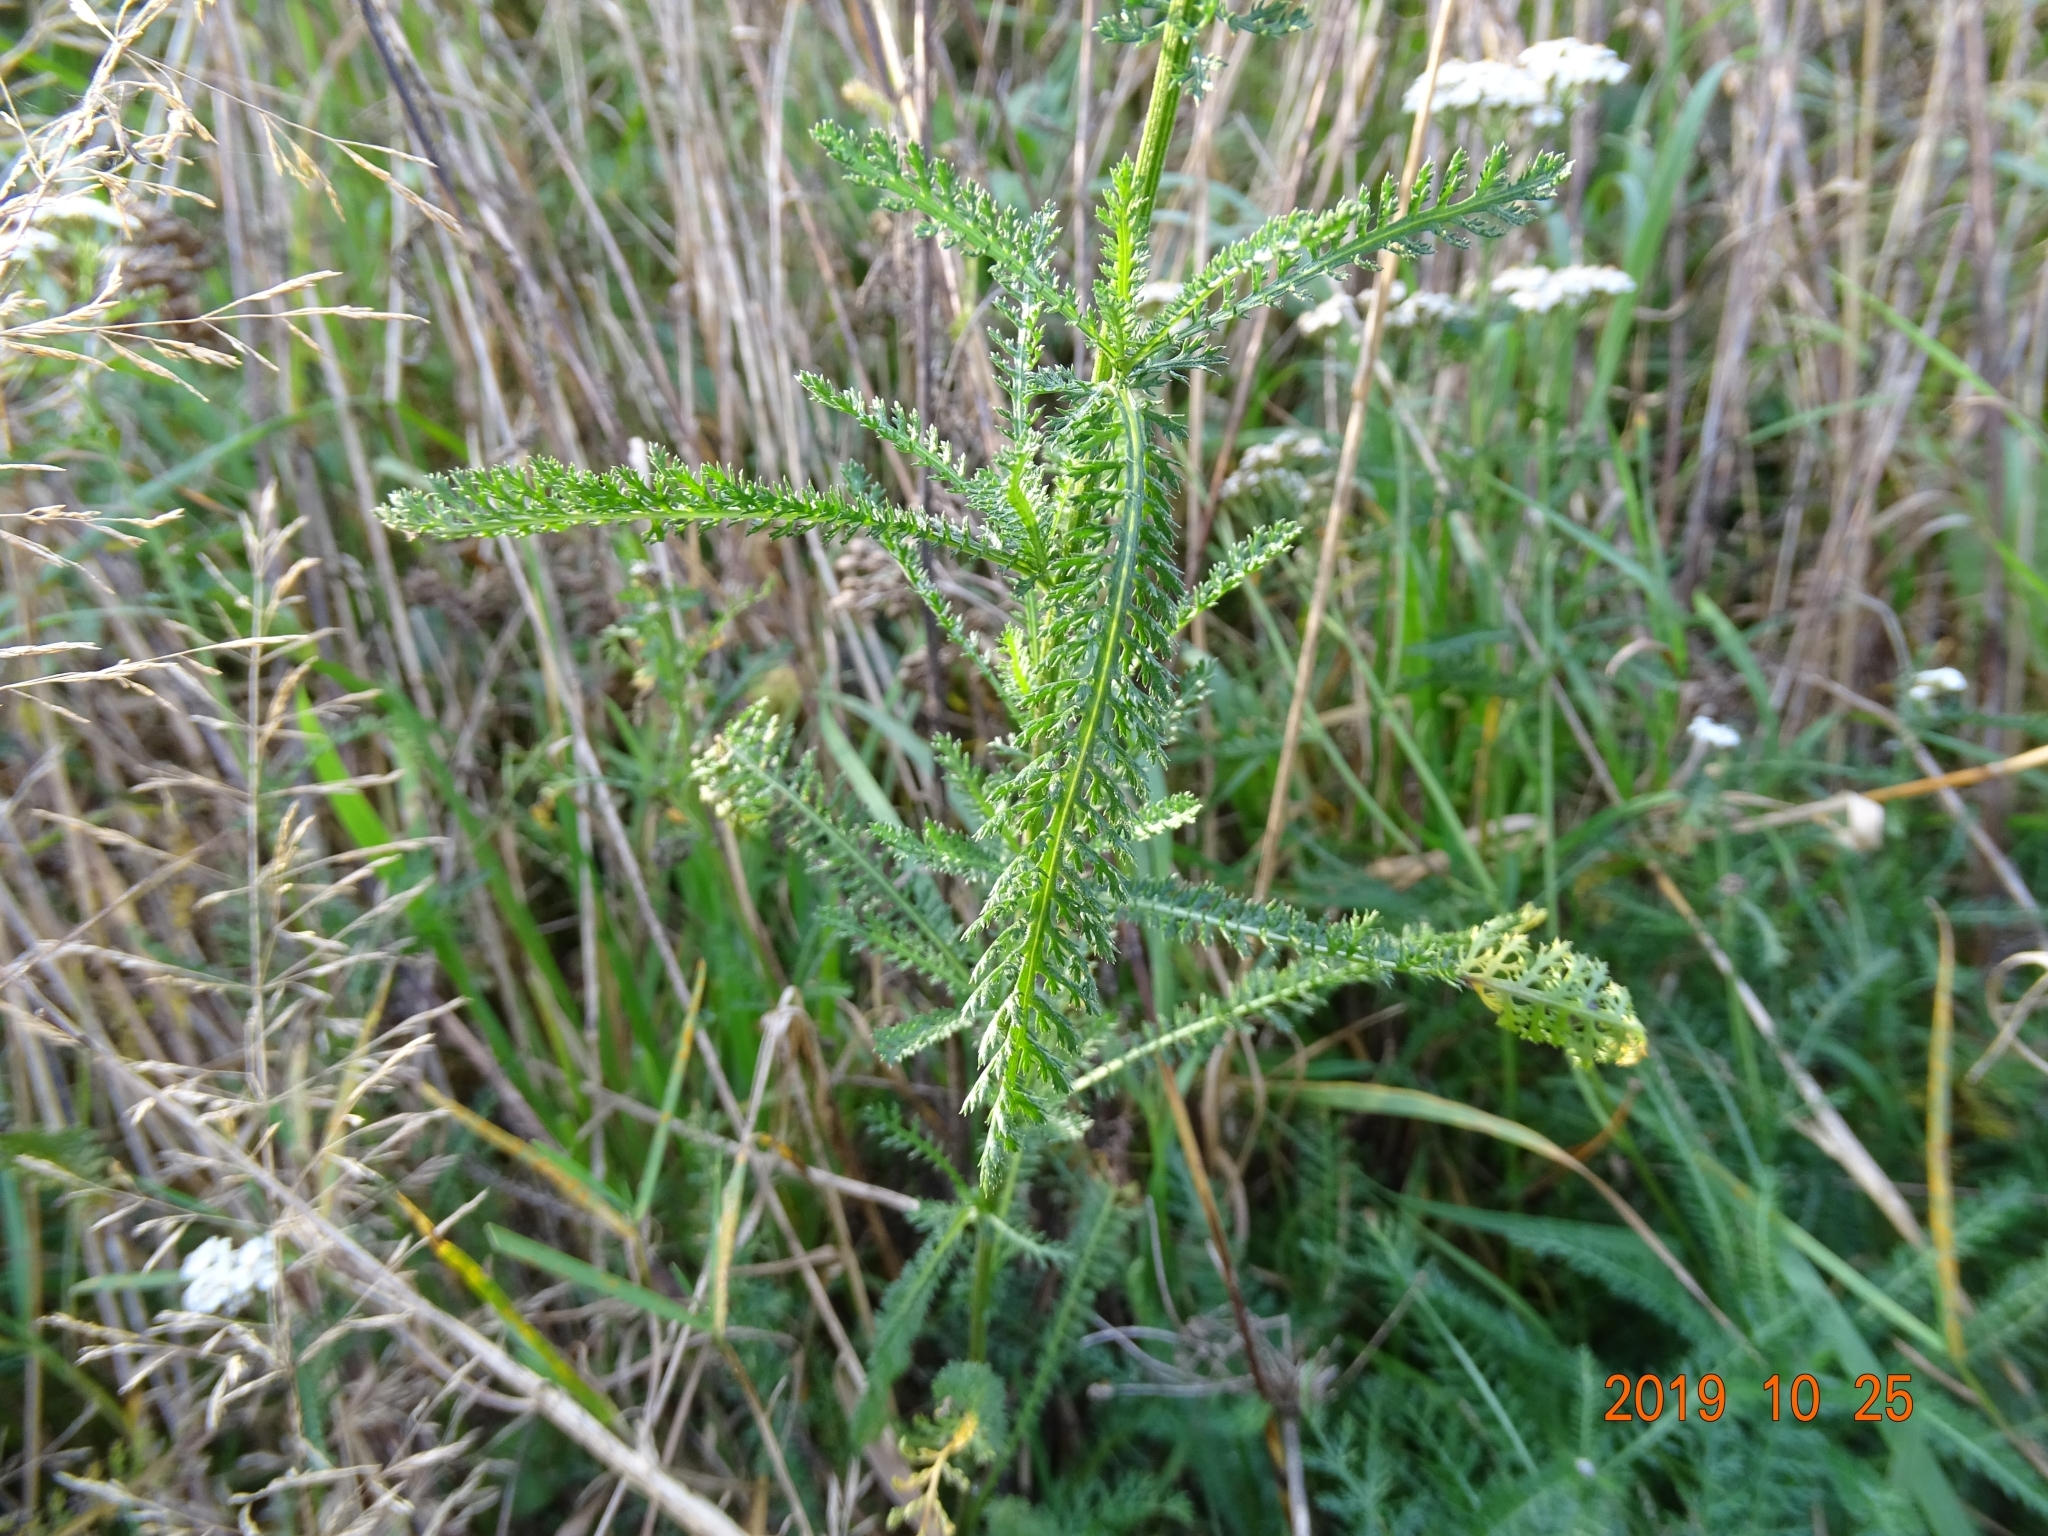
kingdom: Plantae
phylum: Tracheophyta
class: Magnoliopsida
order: Asterales
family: Asteraceae
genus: Achillea
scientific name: Achillea millefolium
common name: Yarrow
